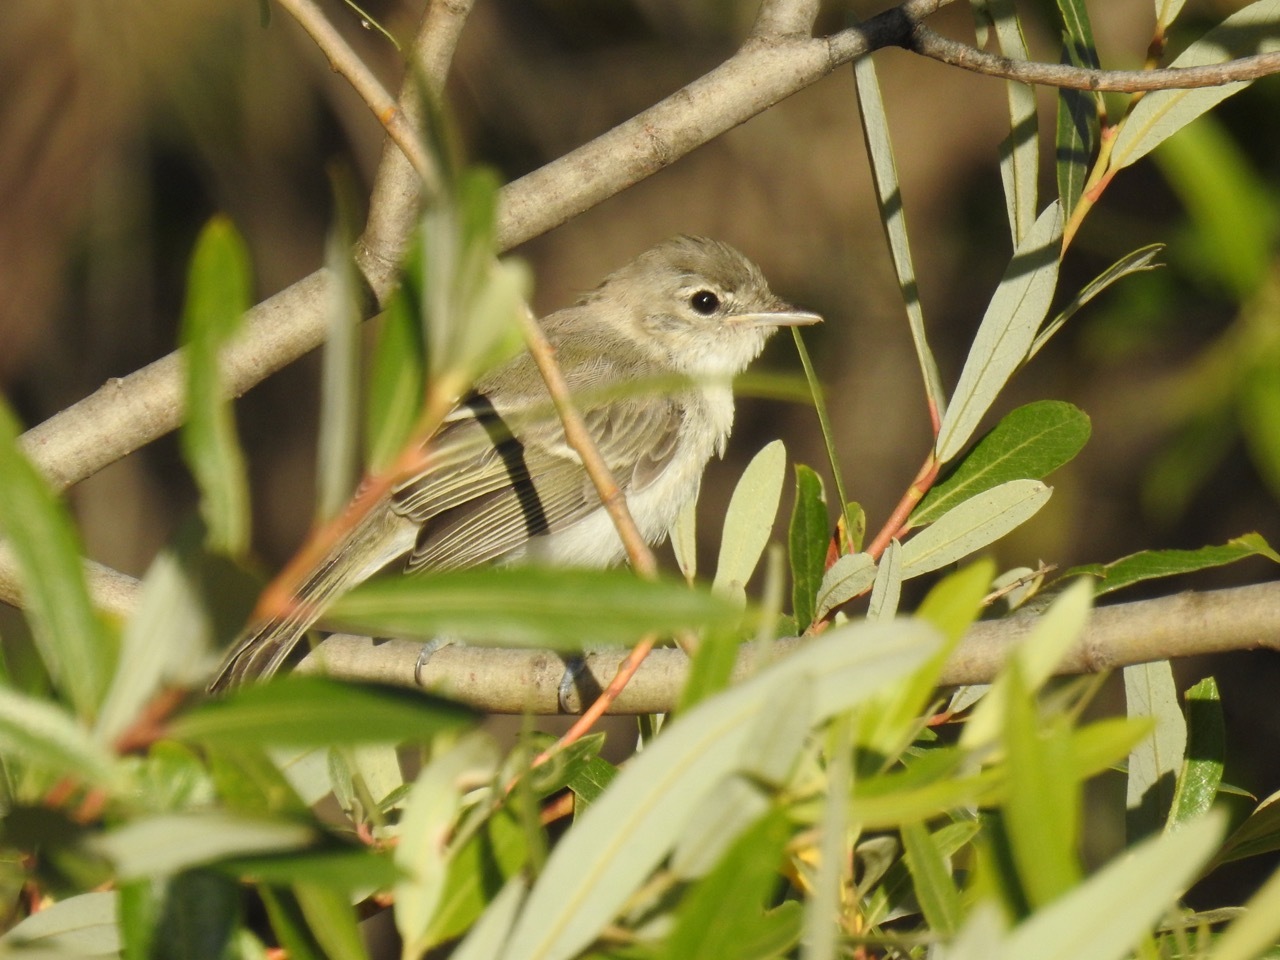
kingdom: Animalia
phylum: Chordata
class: Aves
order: Passeriformes
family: Vireonidae
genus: Vireo
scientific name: Vireo bellii
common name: Bell's vireo
